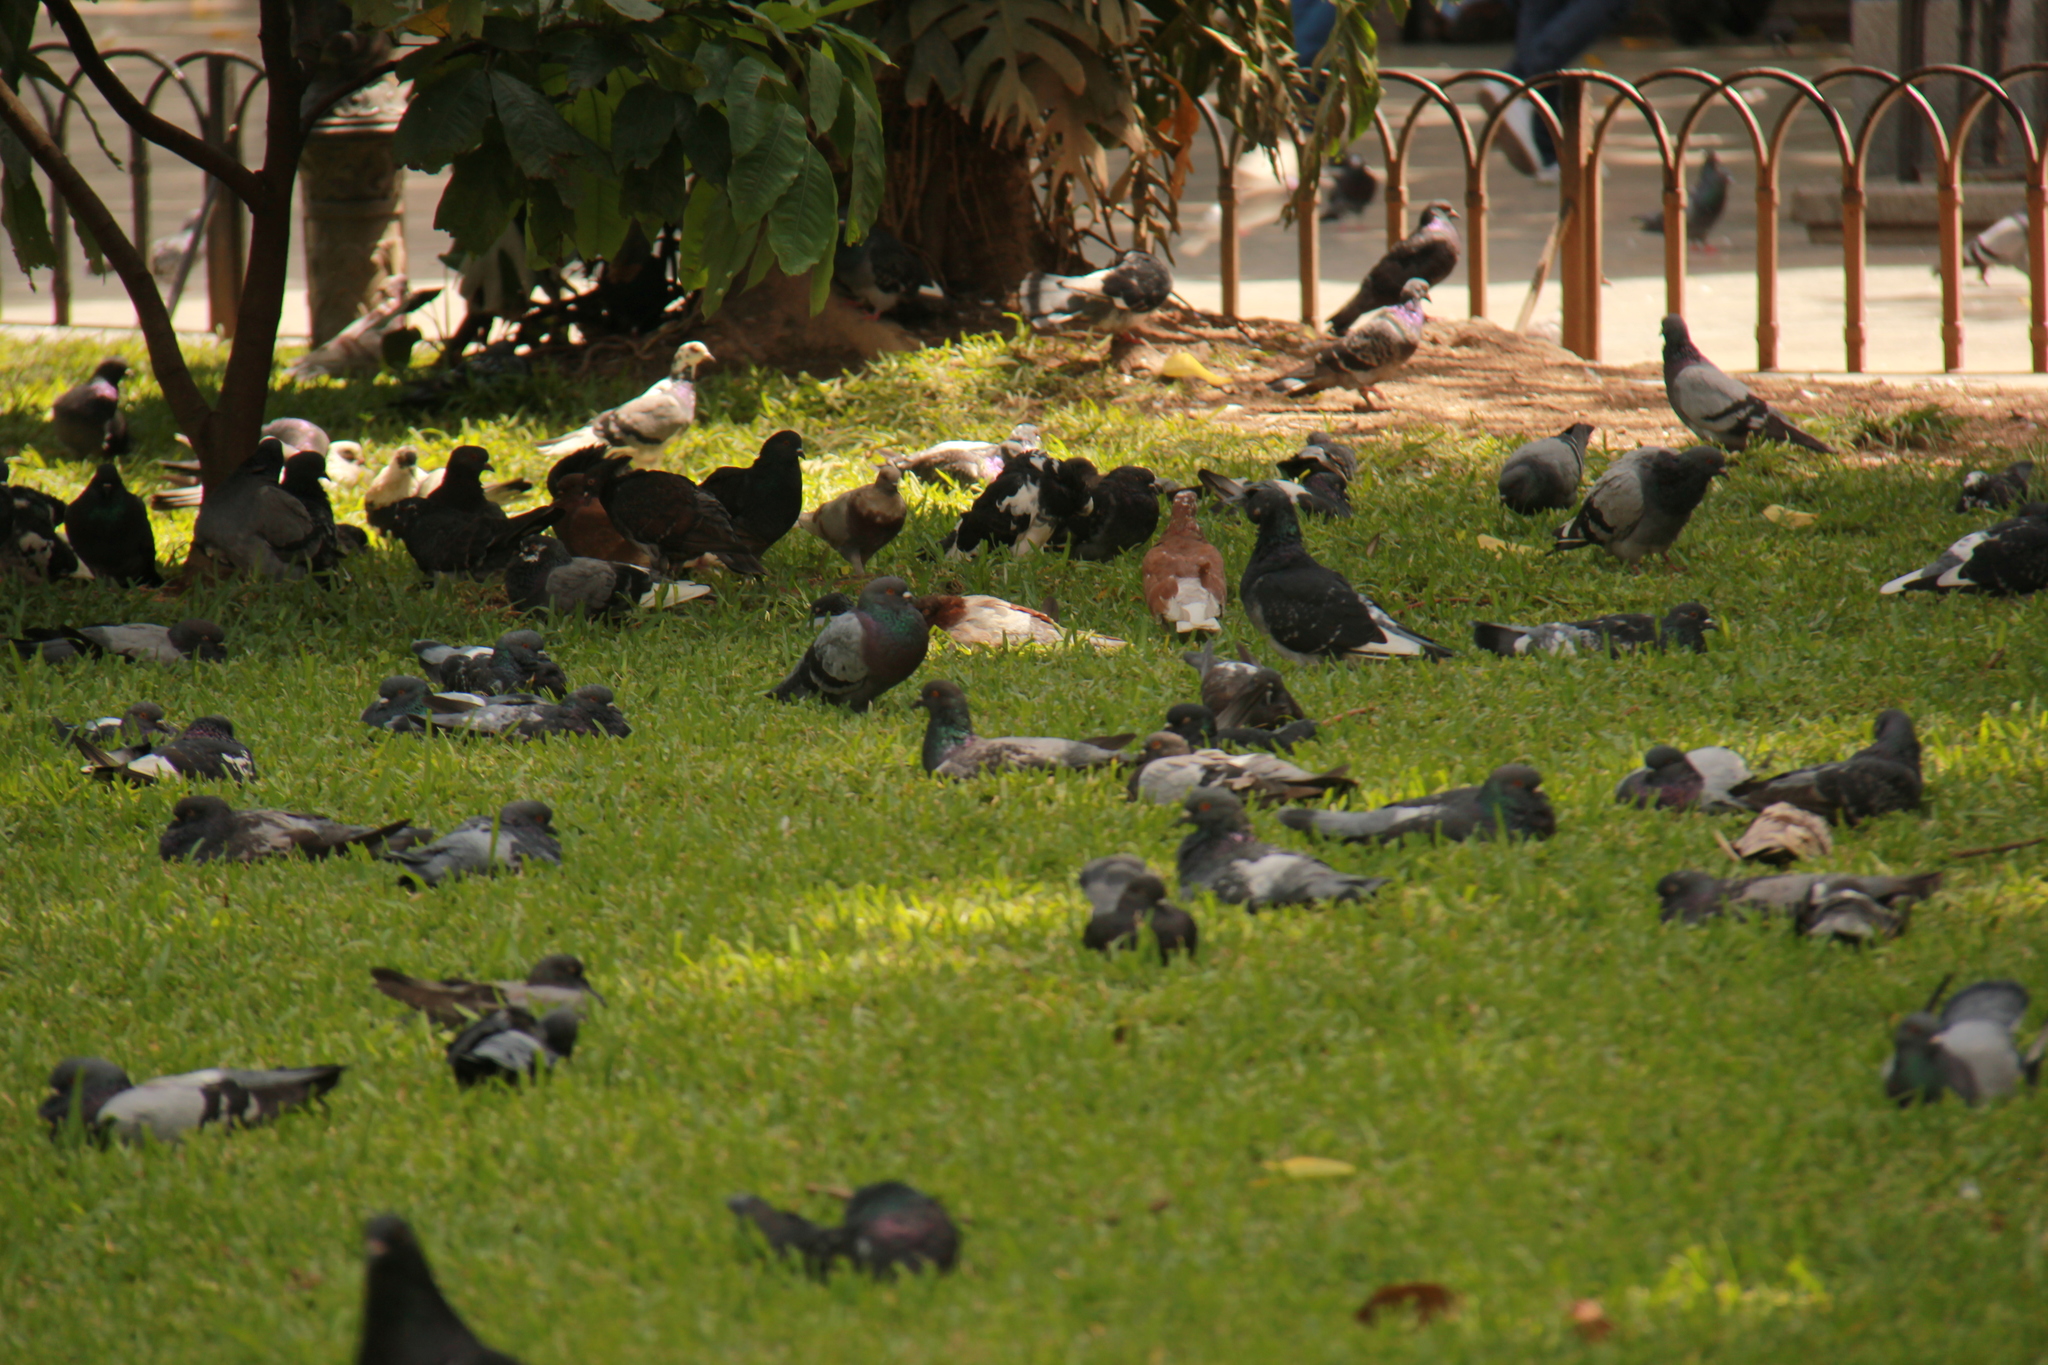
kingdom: Animalia
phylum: Chordata
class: Aves
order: Columbiformes
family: Columbidae
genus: Columba
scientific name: Columba livia
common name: Rock pigeon
